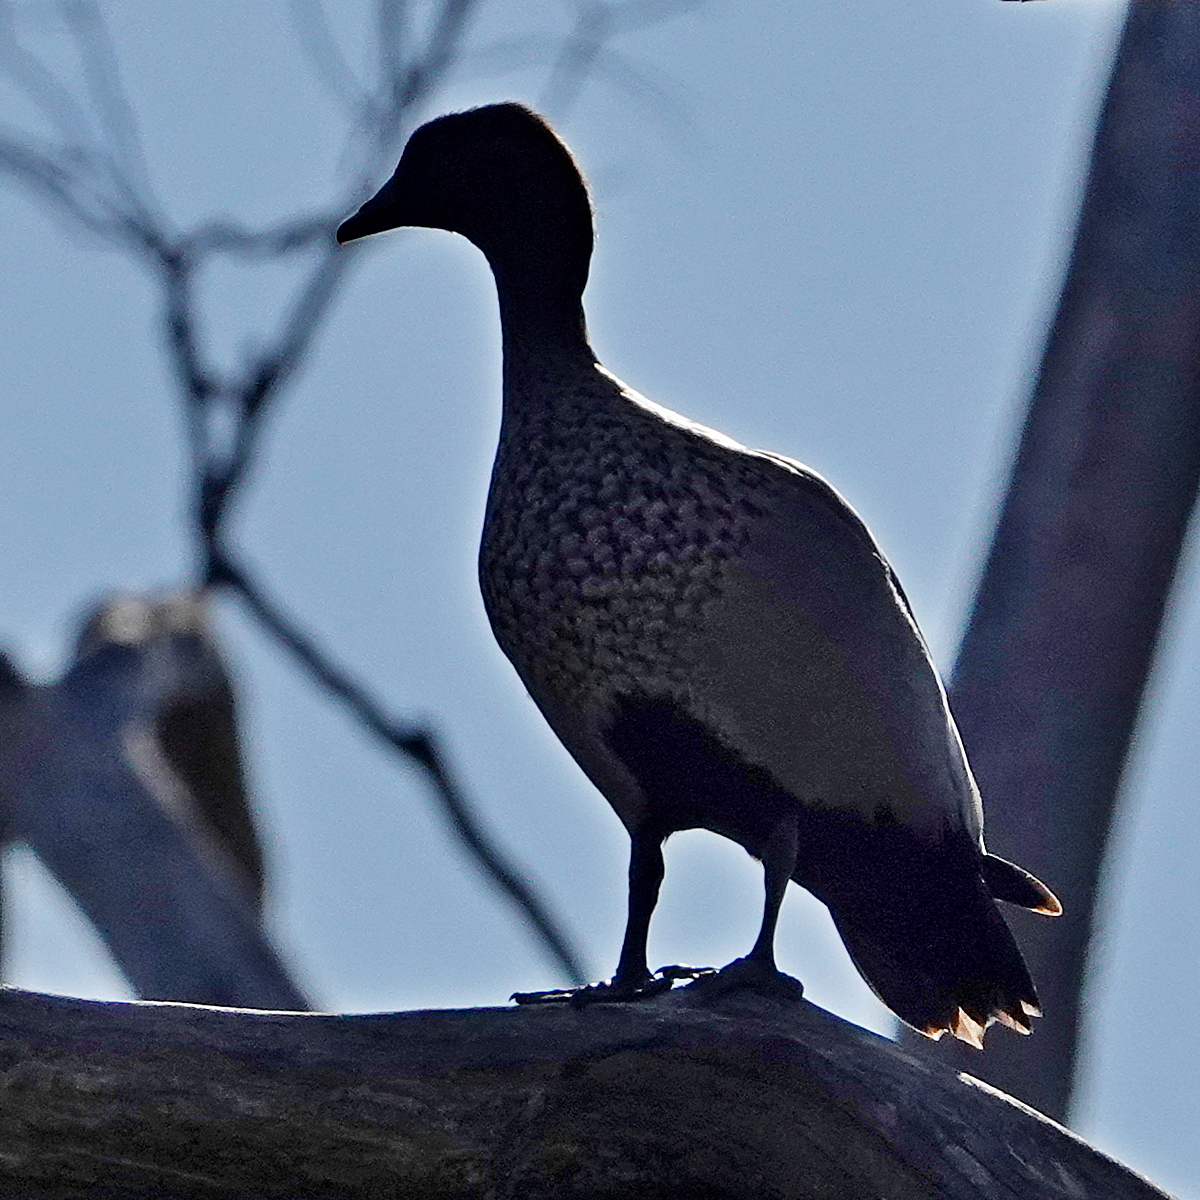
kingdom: Animalia
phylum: Chordata
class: Aves
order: Anseriformes
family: Anatidae
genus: Chenonetta
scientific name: Chenonetta jubata
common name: Maned duck
